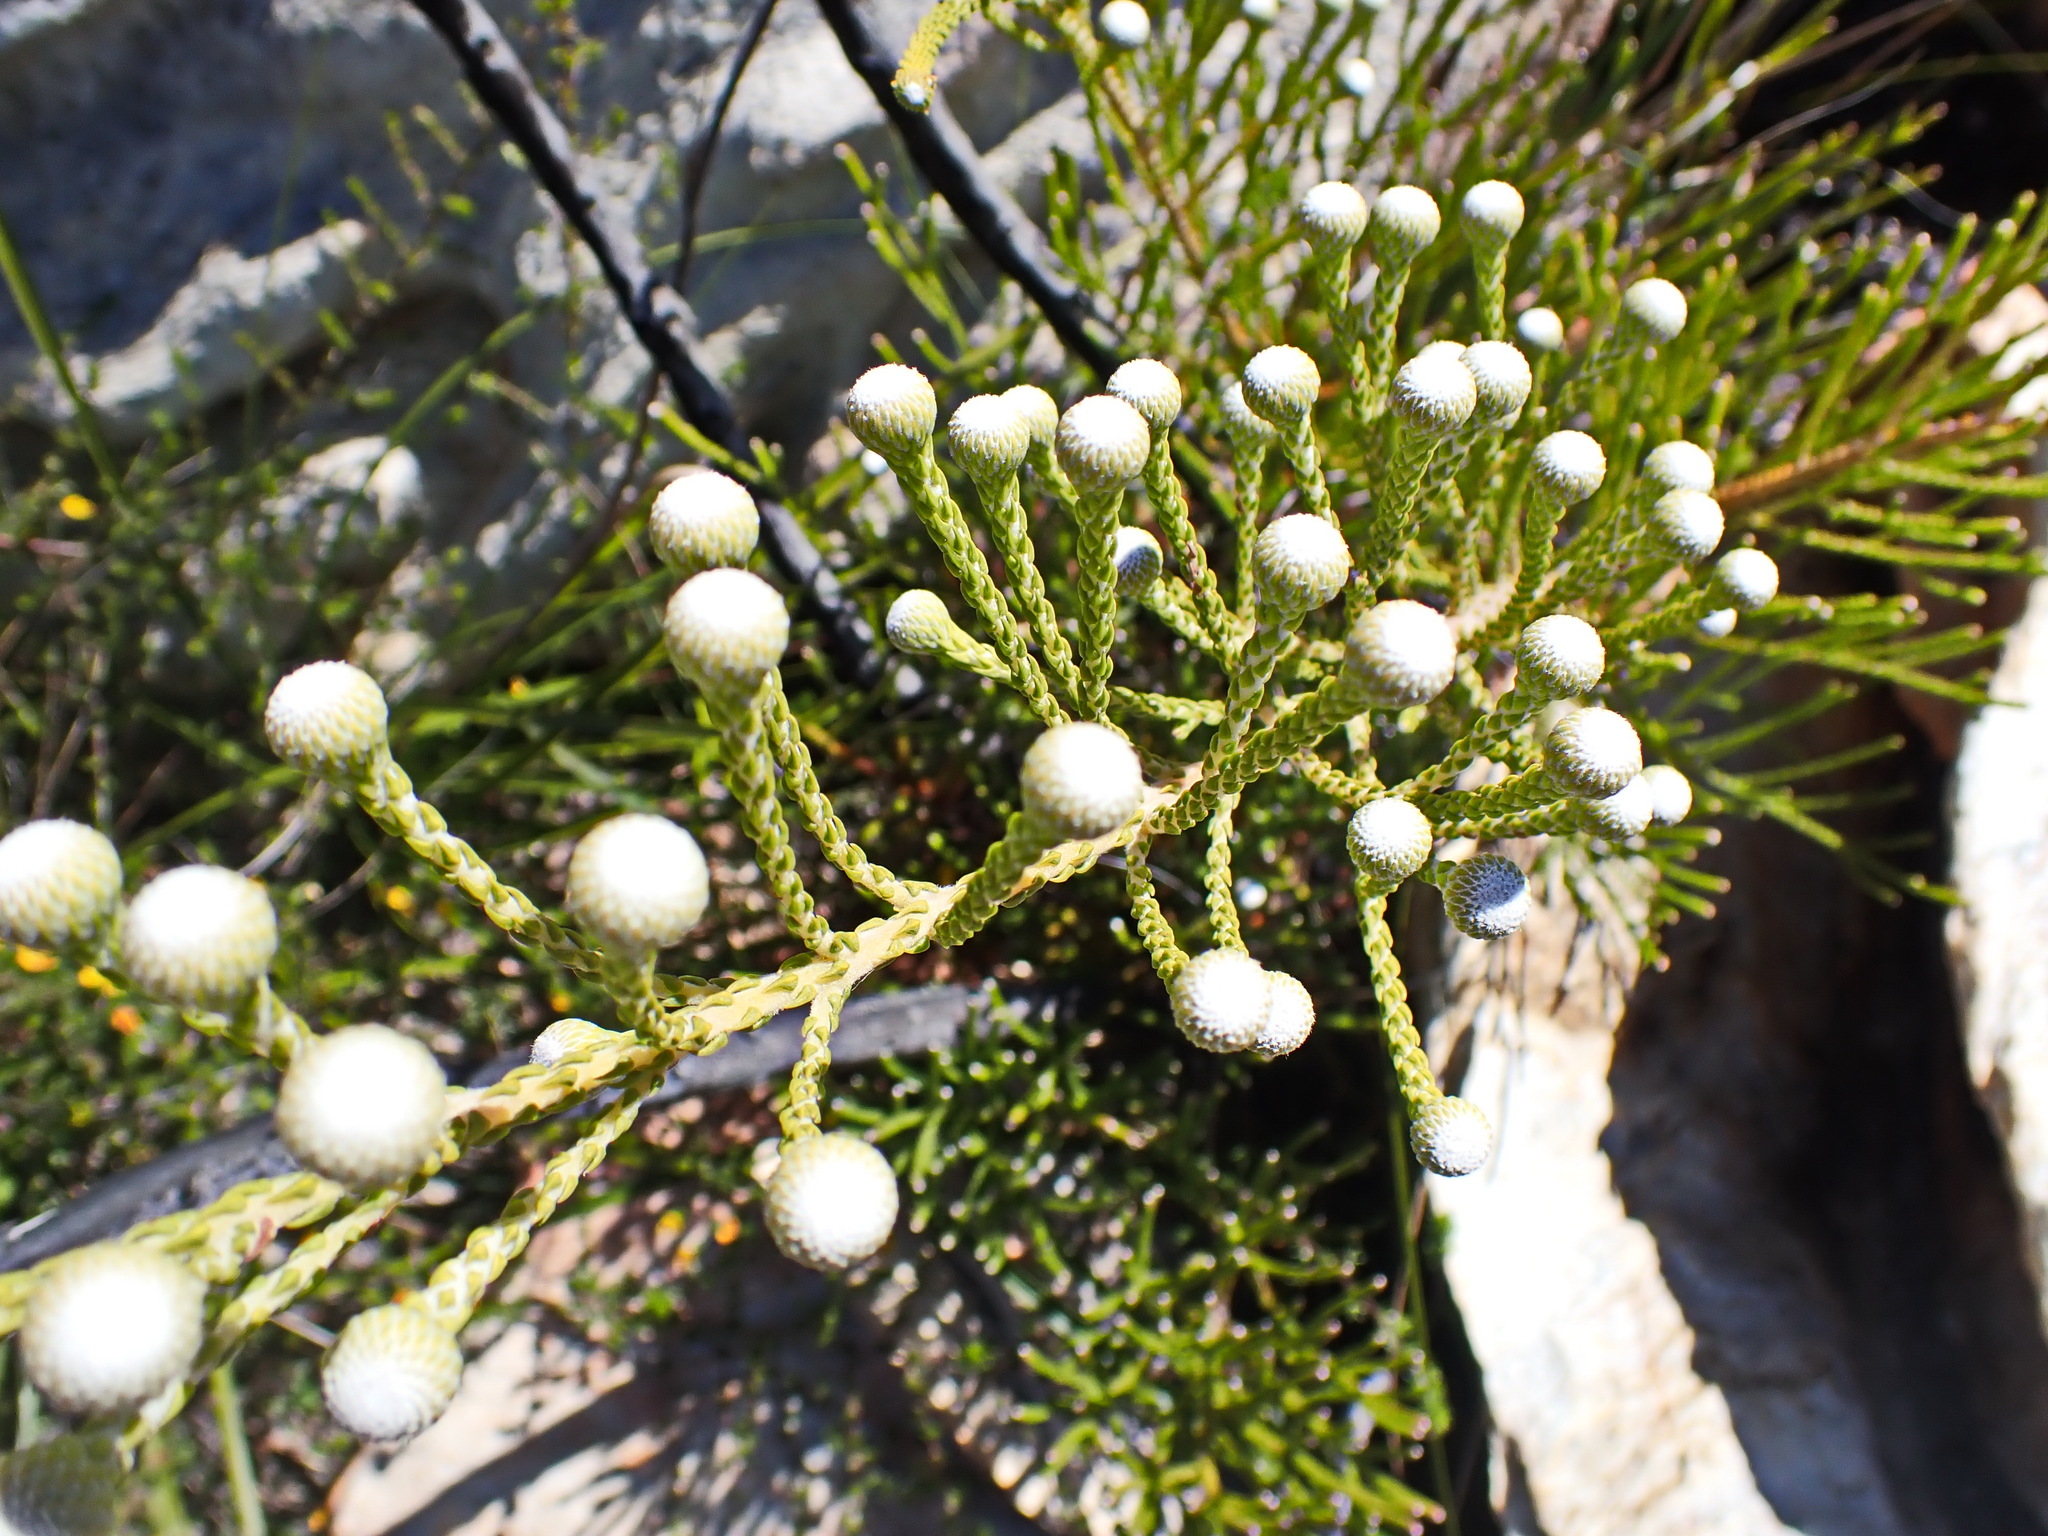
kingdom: Plantae
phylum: Tracheophyta
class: Magnoliopsida
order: Bruniales
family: Bruniaceae
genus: Brunia
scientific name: Brunia noduliflora
